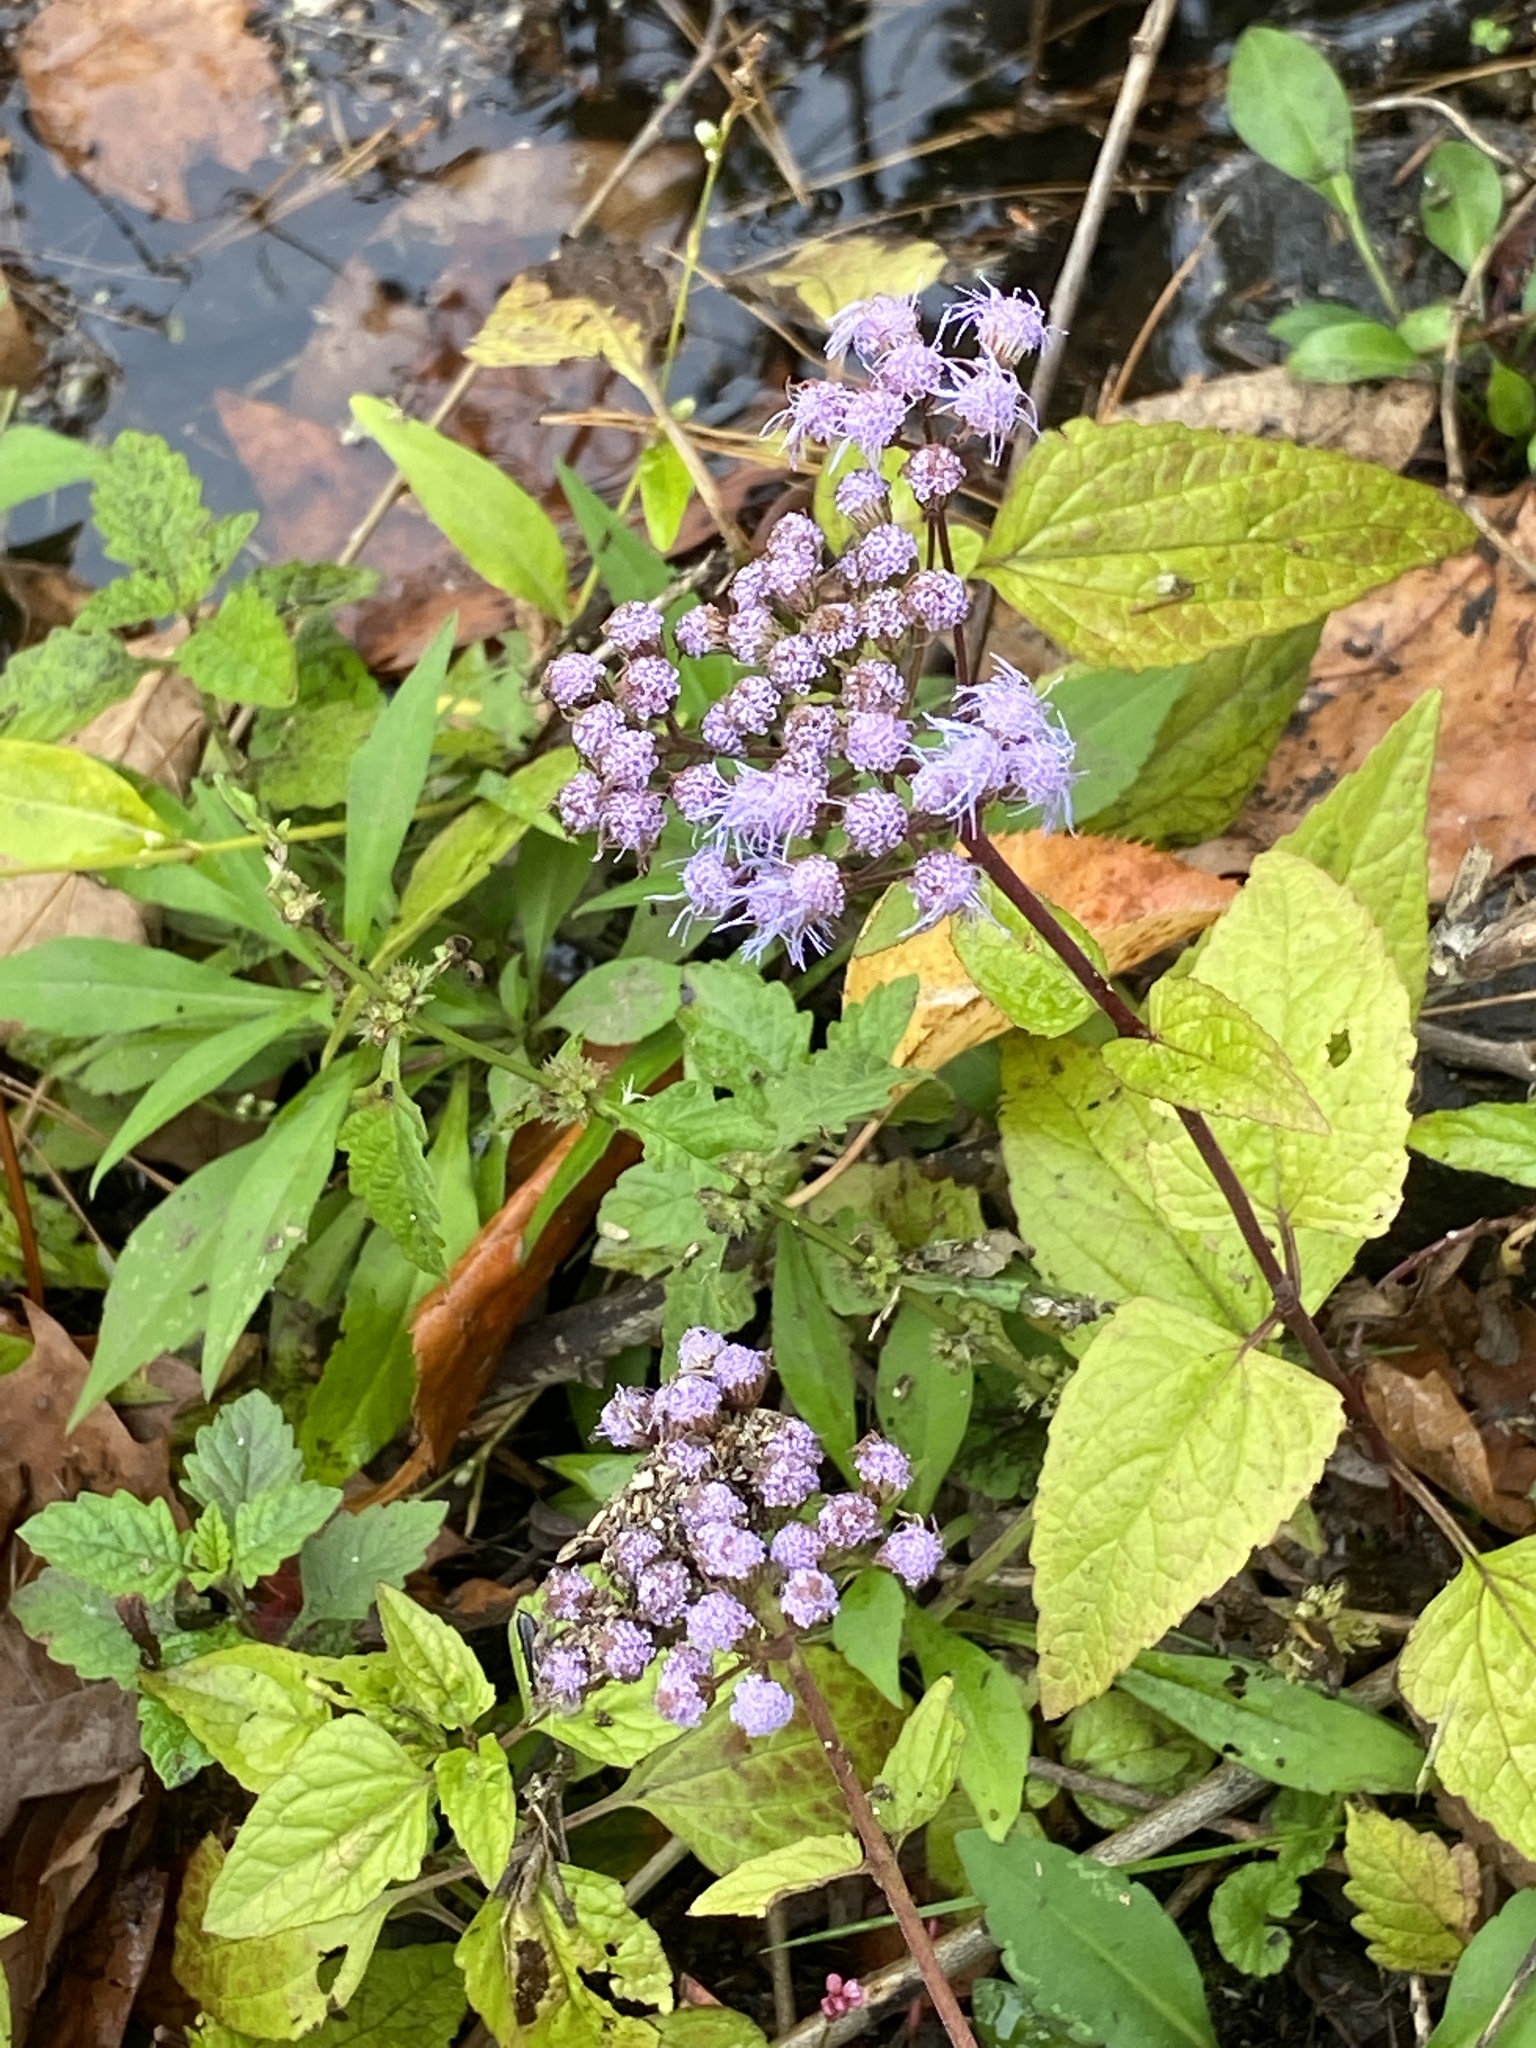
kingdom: Plantae
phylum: Tracheophyta
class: Magnoliopsida
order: Asterales
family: Asteraceae
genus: Conoclinium
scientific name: Conoclinium coelestinum
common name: Blue mistflower
